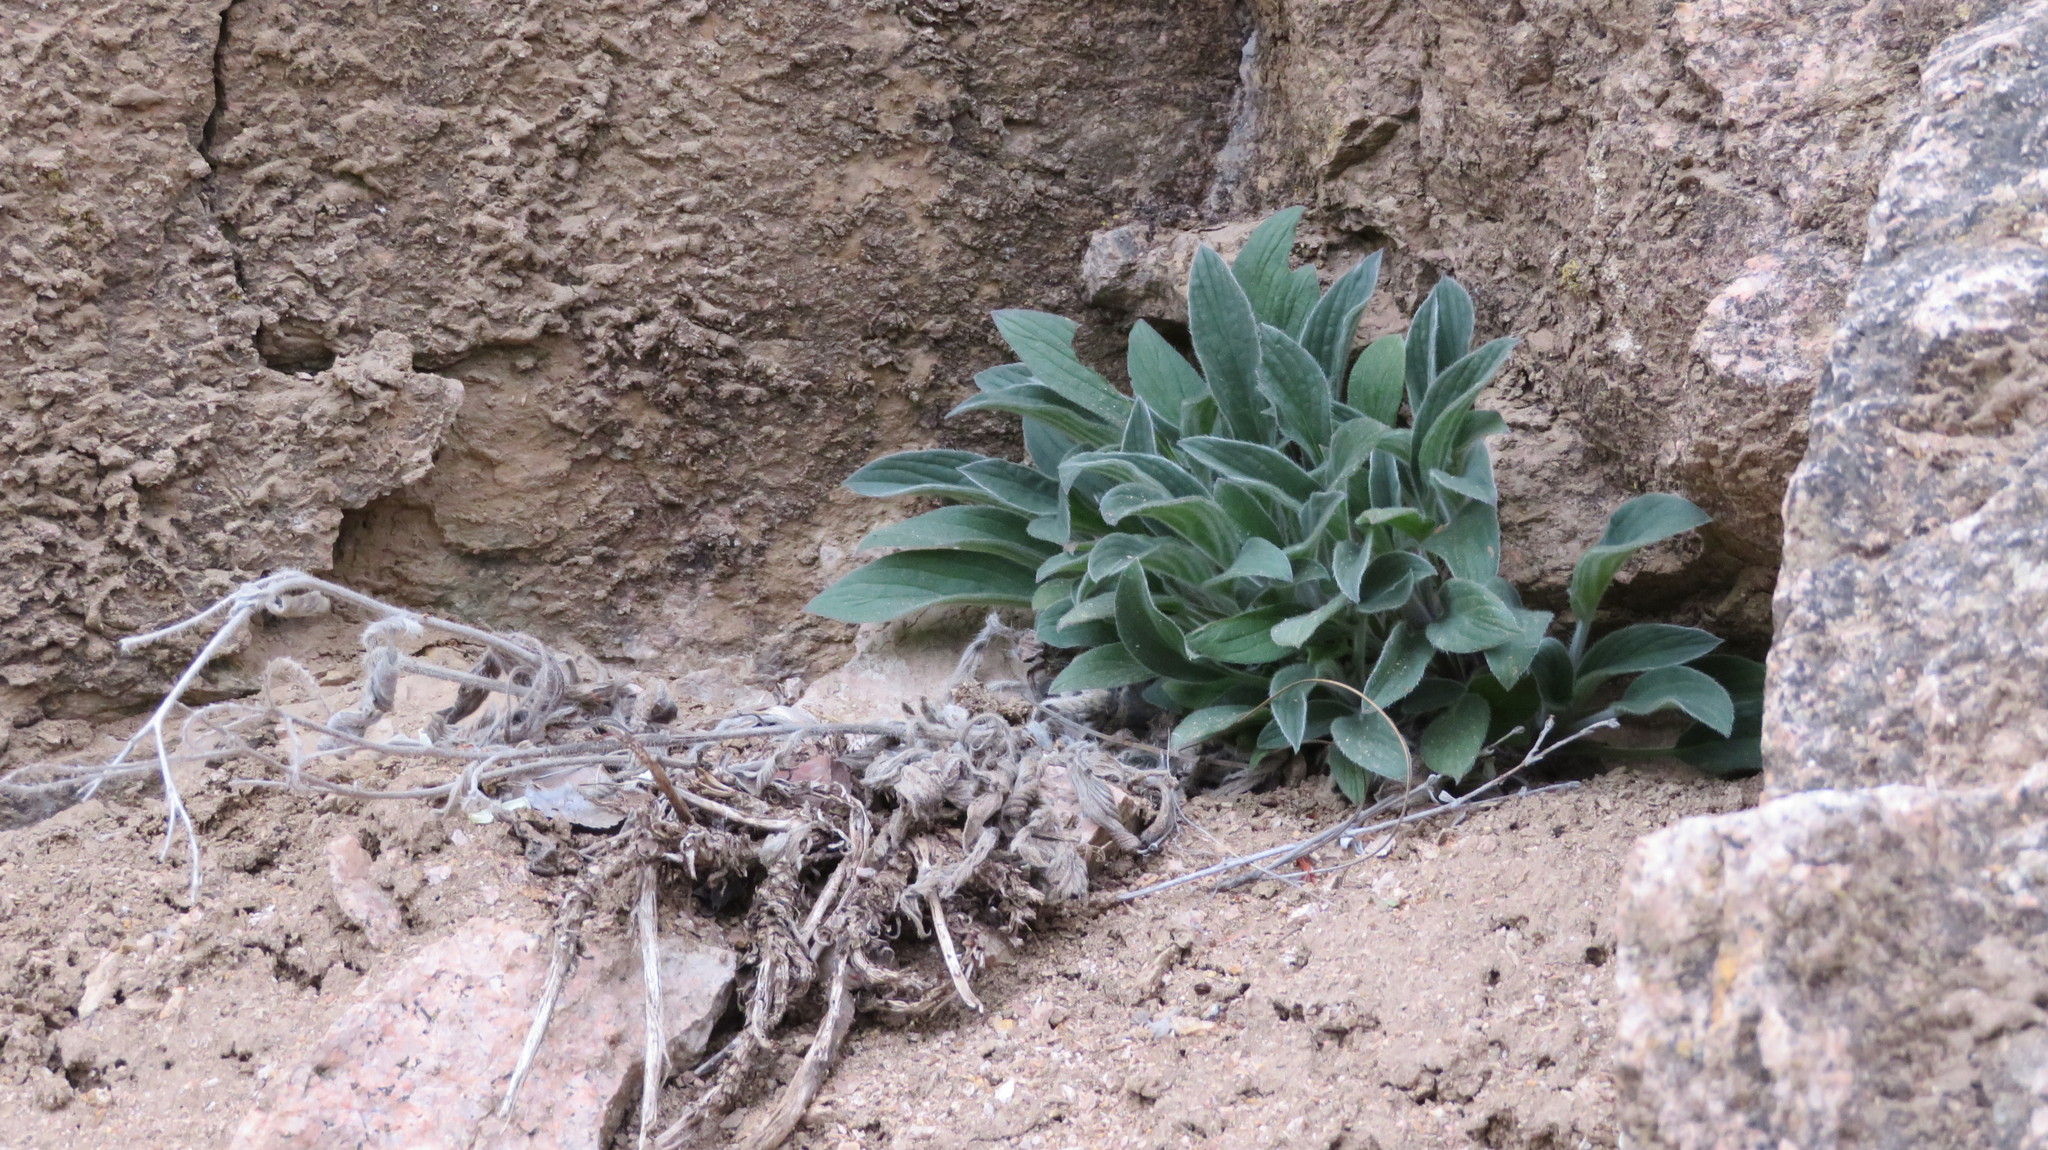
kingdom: Plantae
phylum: Tracheophyta
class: Magnoliopsida
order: Boraginales
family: Hydrophyllaceae
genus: Phacelia
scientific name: Phacelia hastata
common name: Silver-leaved phacelia
